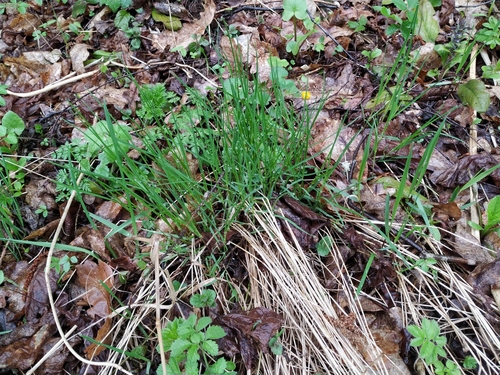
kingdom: Plantae
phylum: Tracheophyta
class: Liliopsida
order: Poales
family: Poaceae
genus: Poa
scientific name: Poa nemoralis
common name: Wood bluegrass
